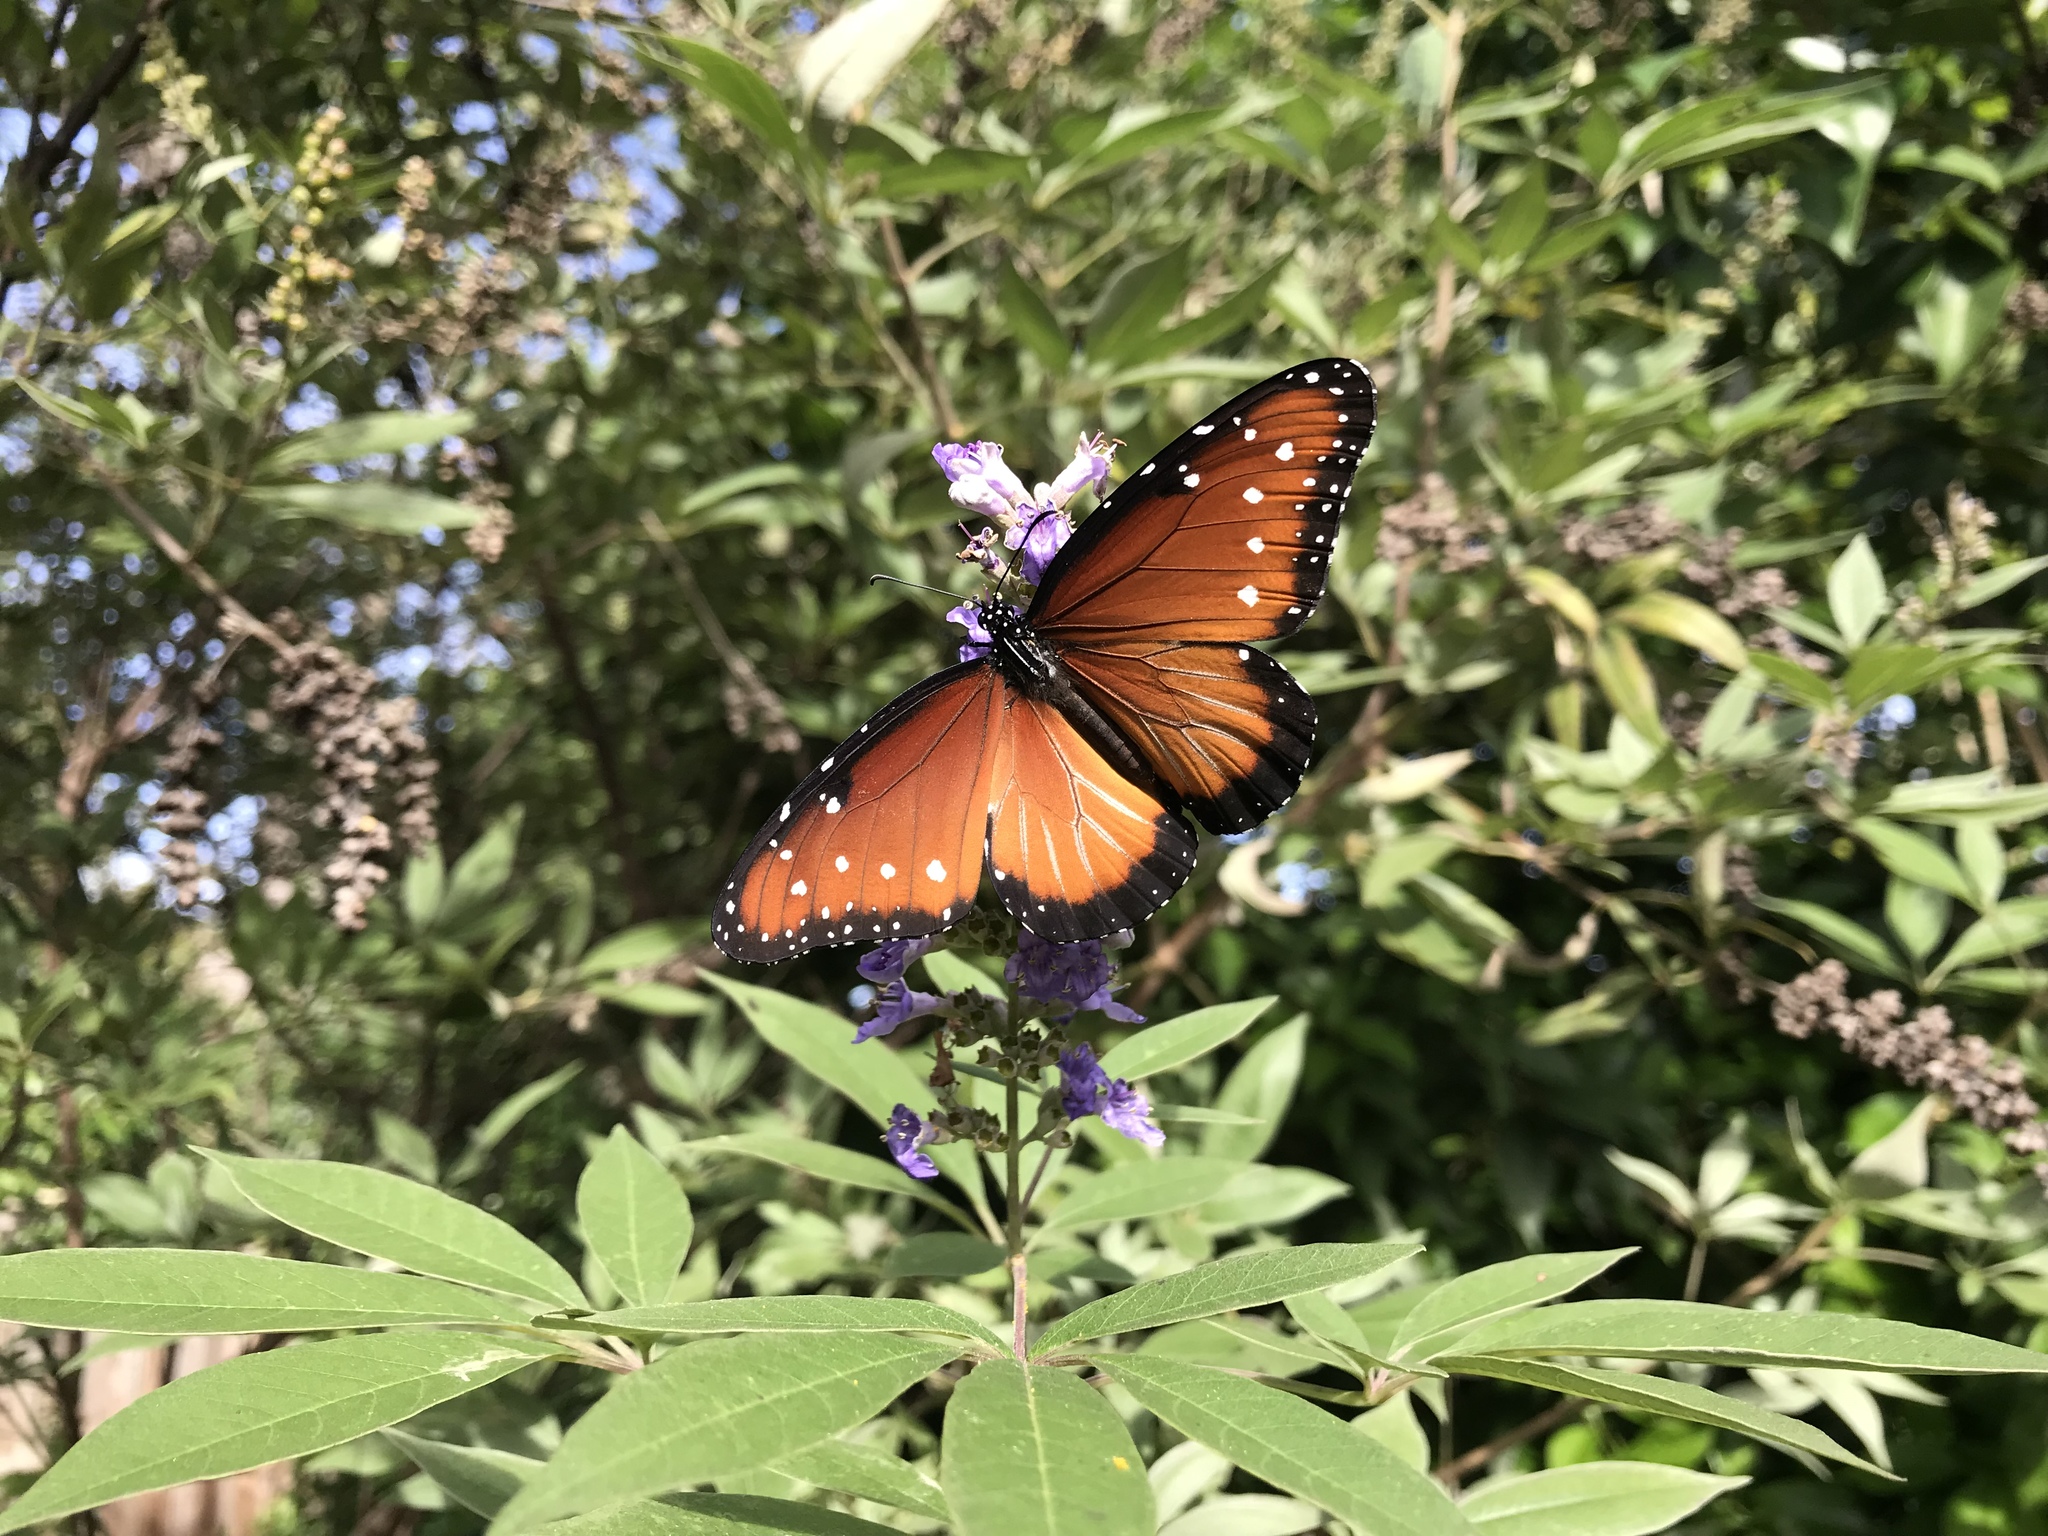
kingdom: Animalia
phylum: Arthropoda
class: Insecta
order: Lepidoptera
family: Nymphalidae
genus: Danaus
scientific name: Danaus gilippus
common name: Queen
